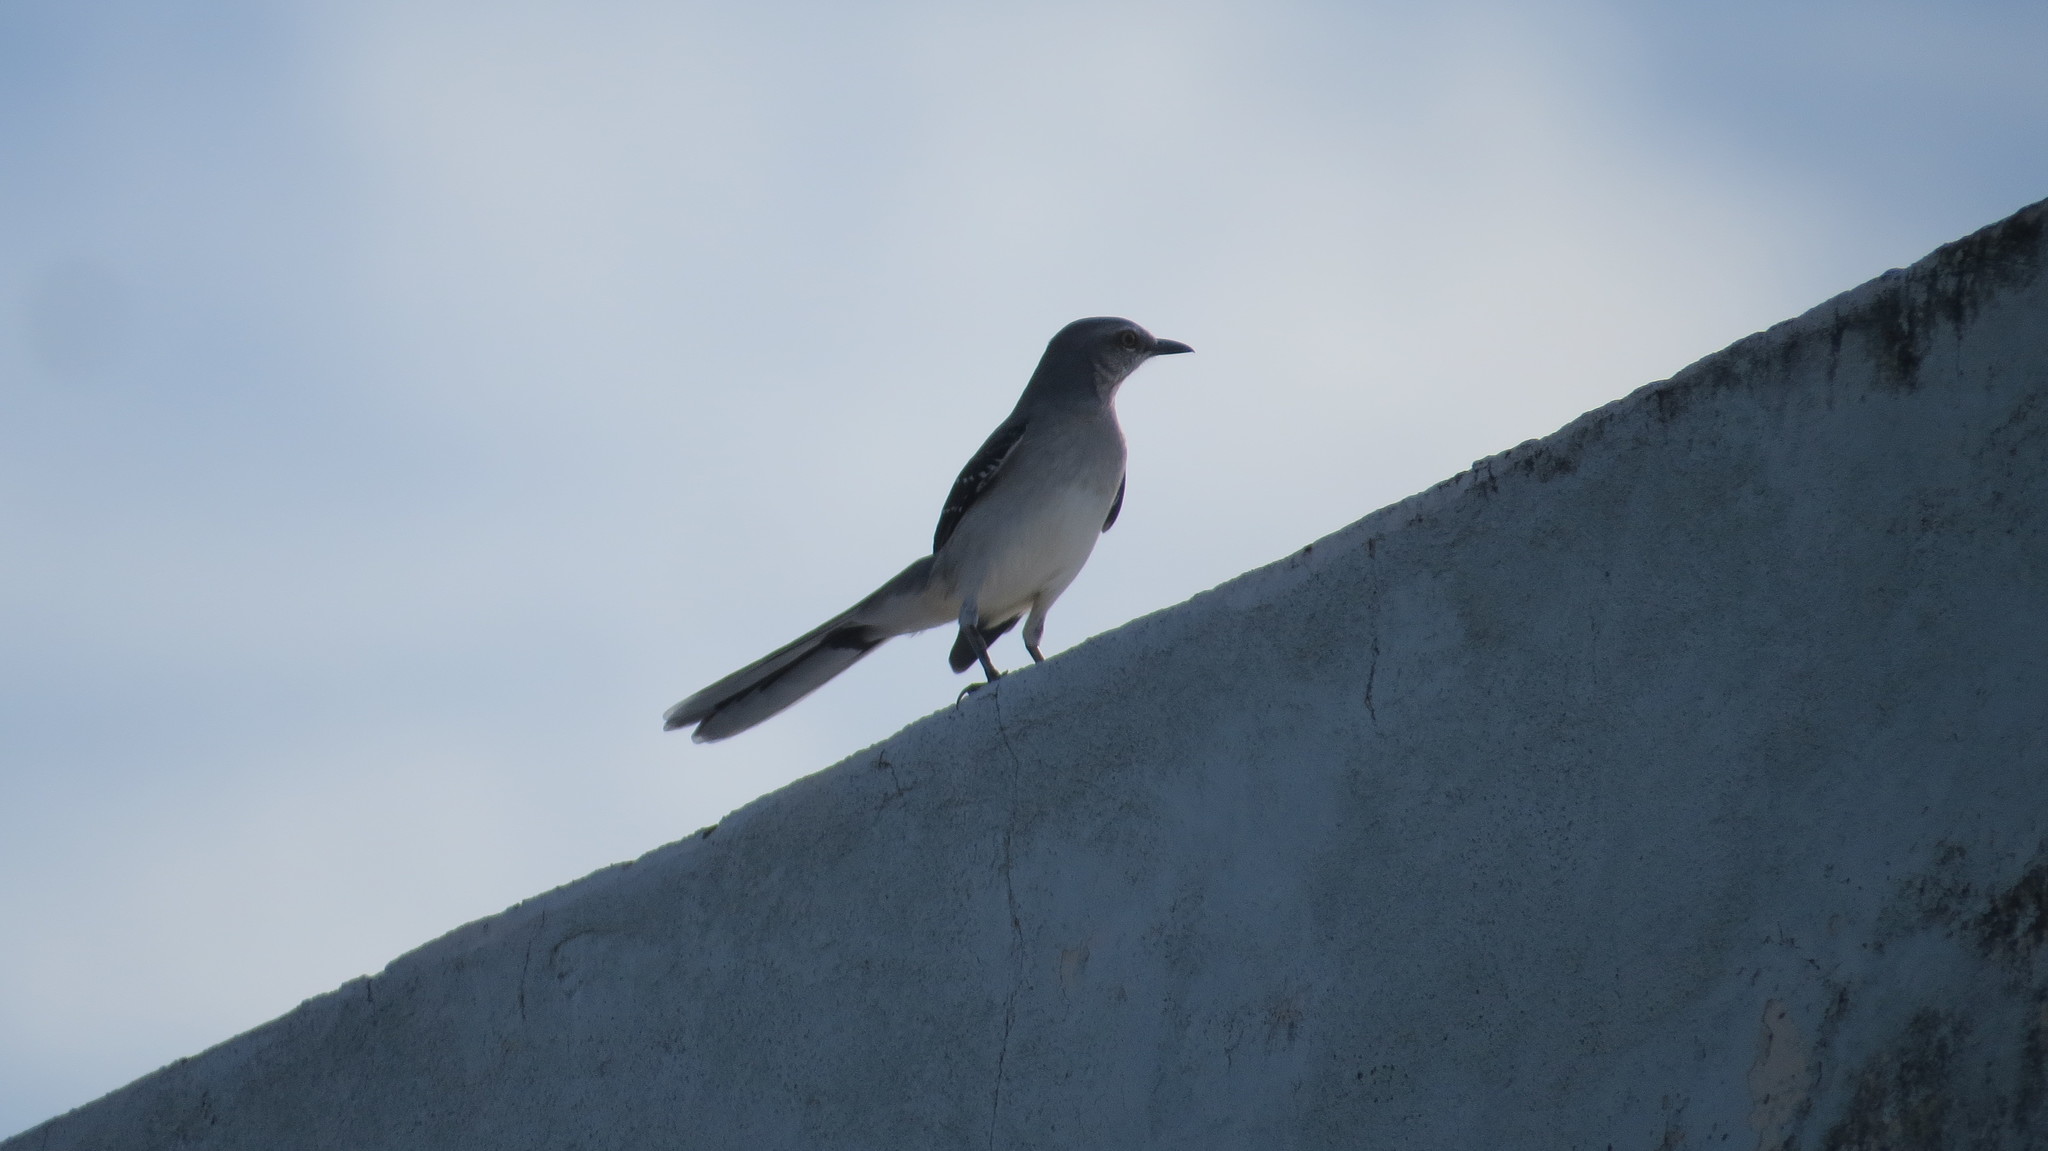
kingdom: Animalia
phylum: Chordata
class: Aves
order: Passeriformes
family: Mimidae
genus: Mimus
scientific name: Mimus gilvus
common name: Tropical mockingbird
